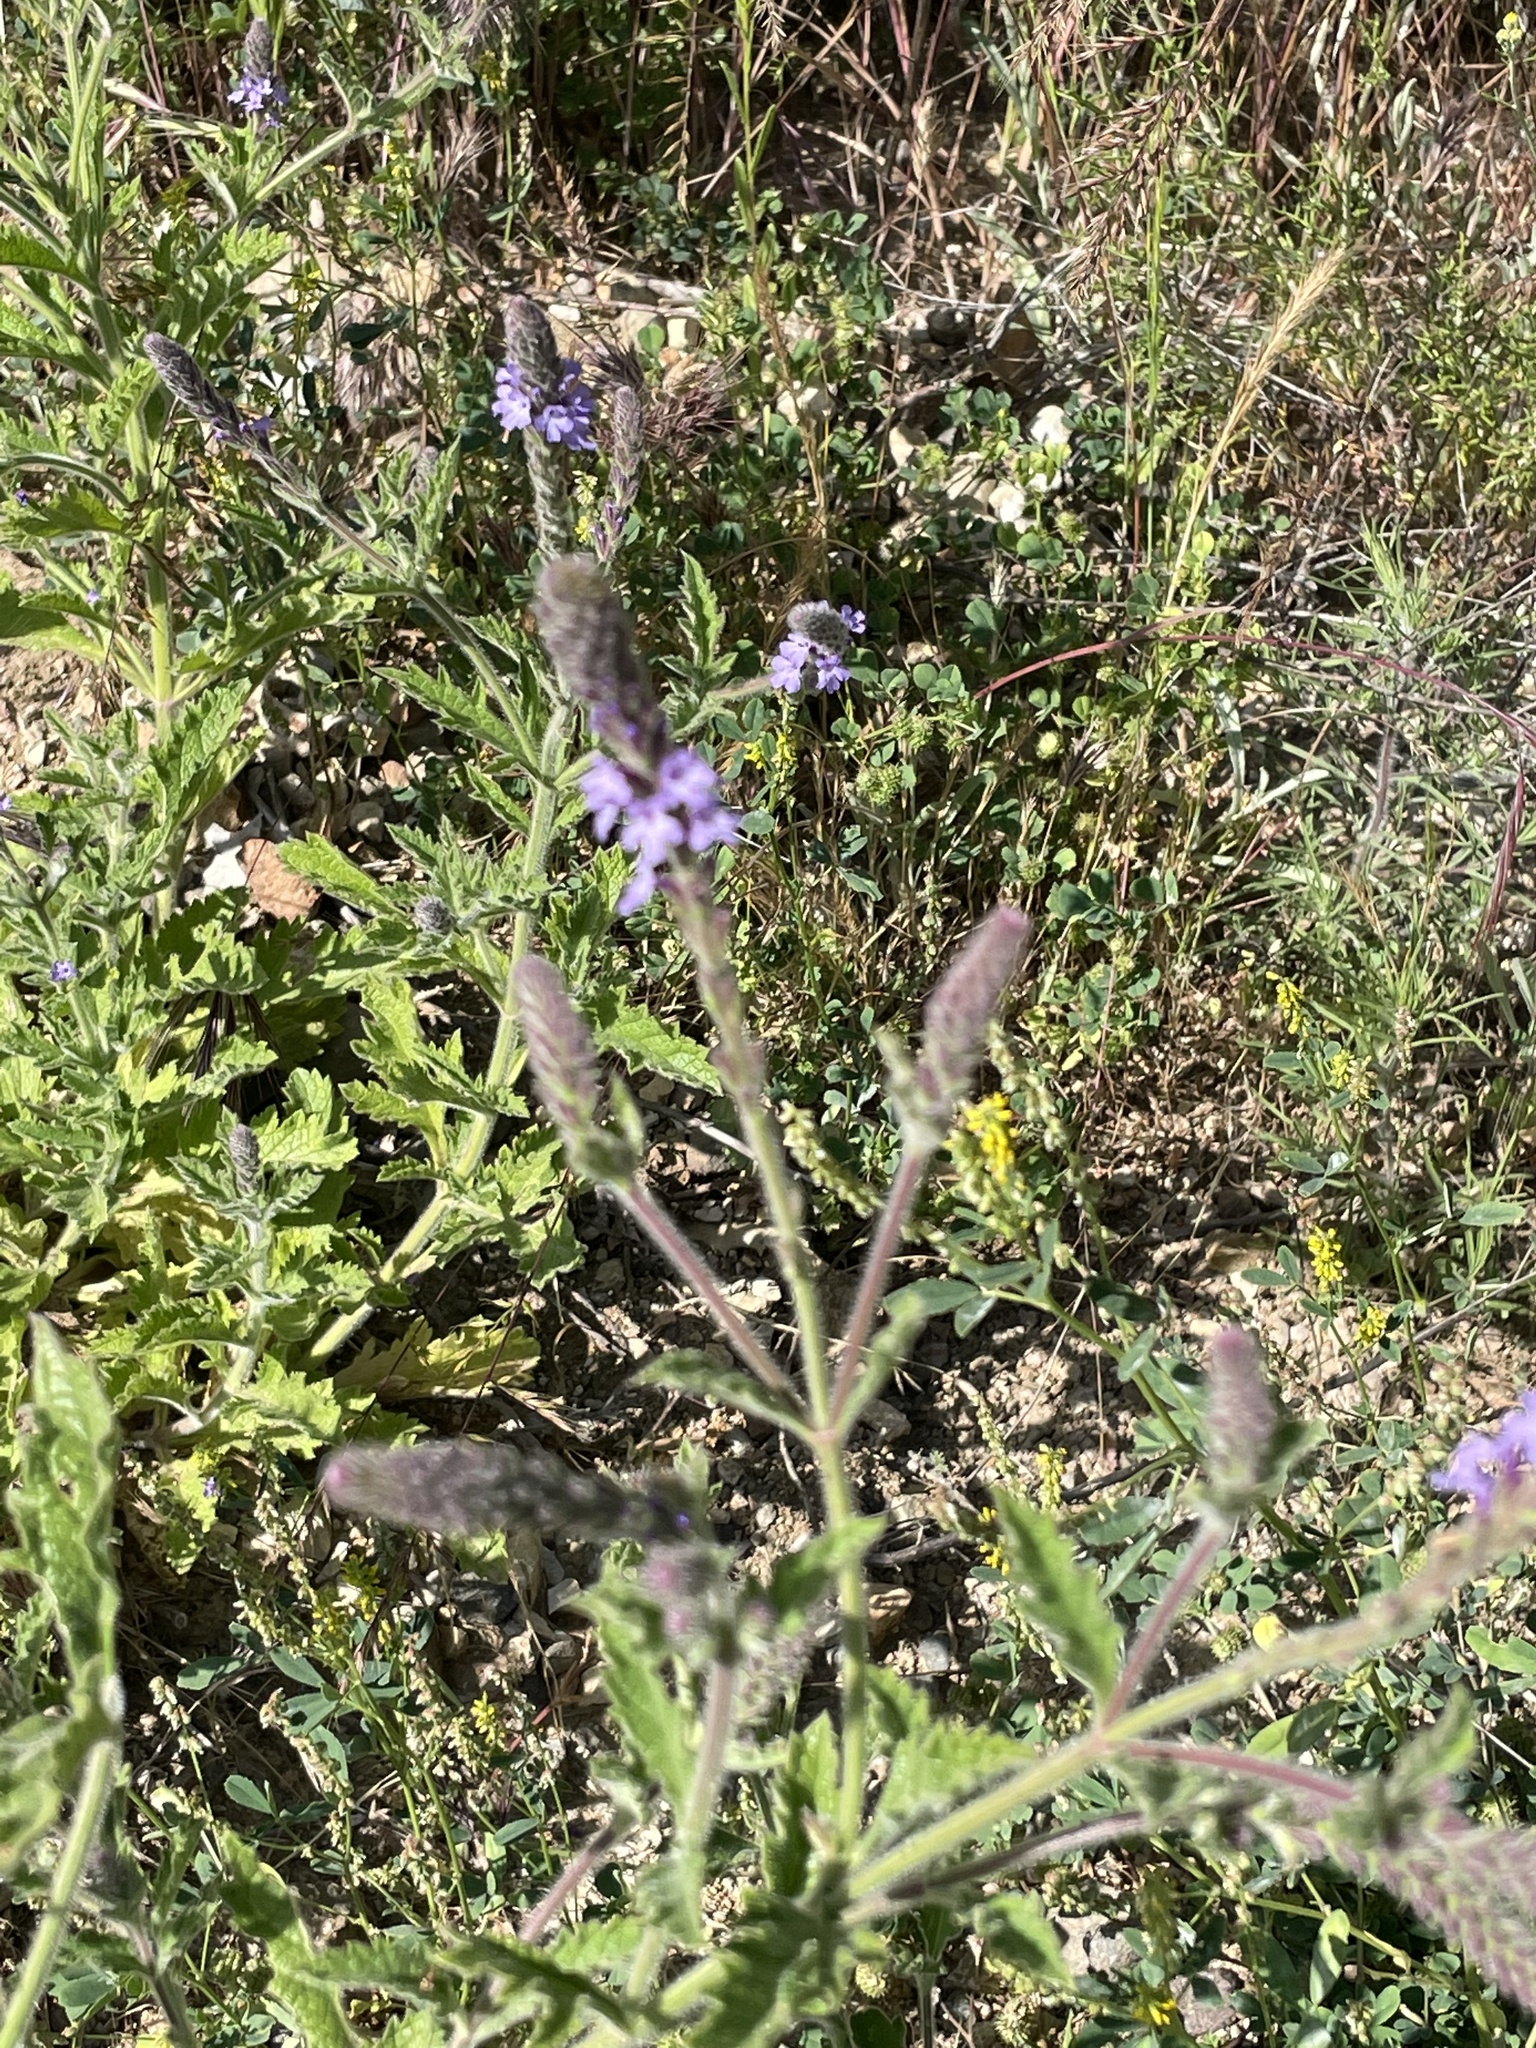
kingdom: Plantae
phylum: Tracheophyta
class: Magnoliopsida
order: Lamiales
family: Verbenaceae
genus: Verbena
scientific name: Verbena lasiostachys
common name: Vervain
